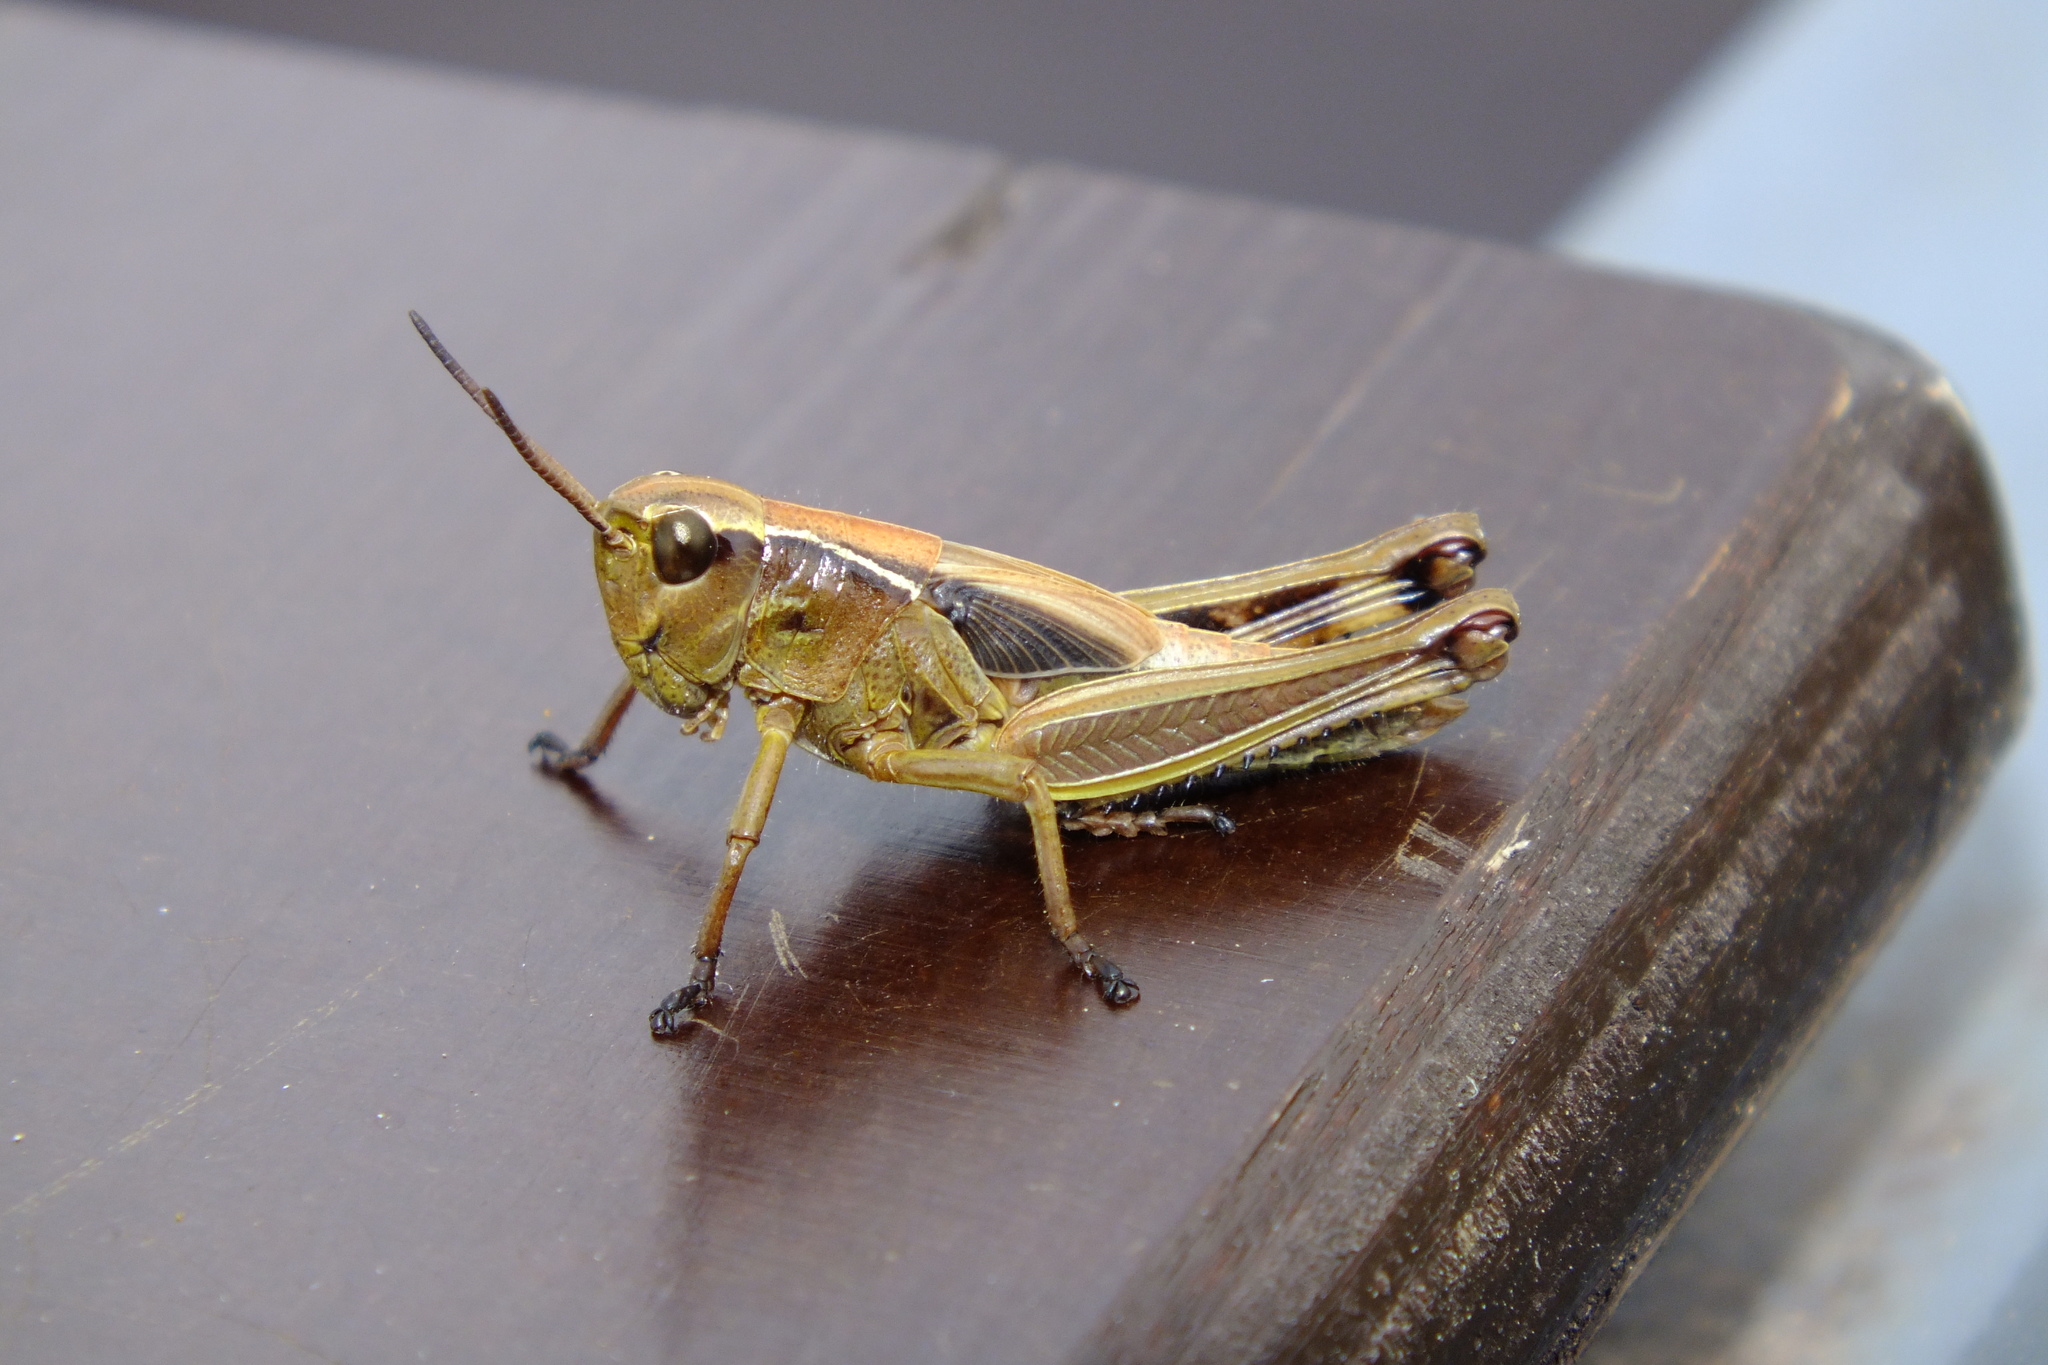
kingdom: Animalia
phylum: Arthropoda
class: Insecta
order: Orthoptera
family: Acrididae
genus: Stethophyma
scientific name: Stethophyma grossum
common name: Large marsh grasshopper
